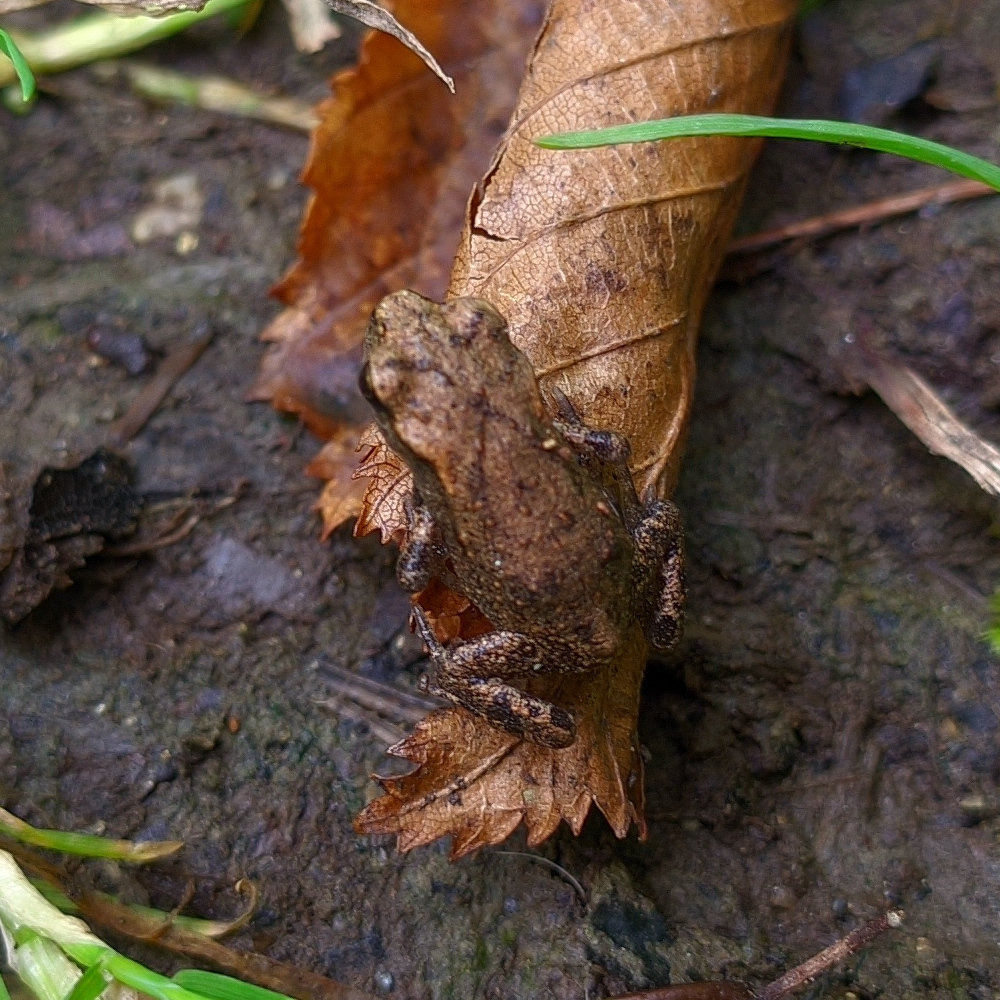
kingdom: Animalia
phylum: Chordata
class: Amphibia
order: Anura
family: Bufonidae
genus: Bufo
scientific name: Bufo bufo
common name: Common toad
